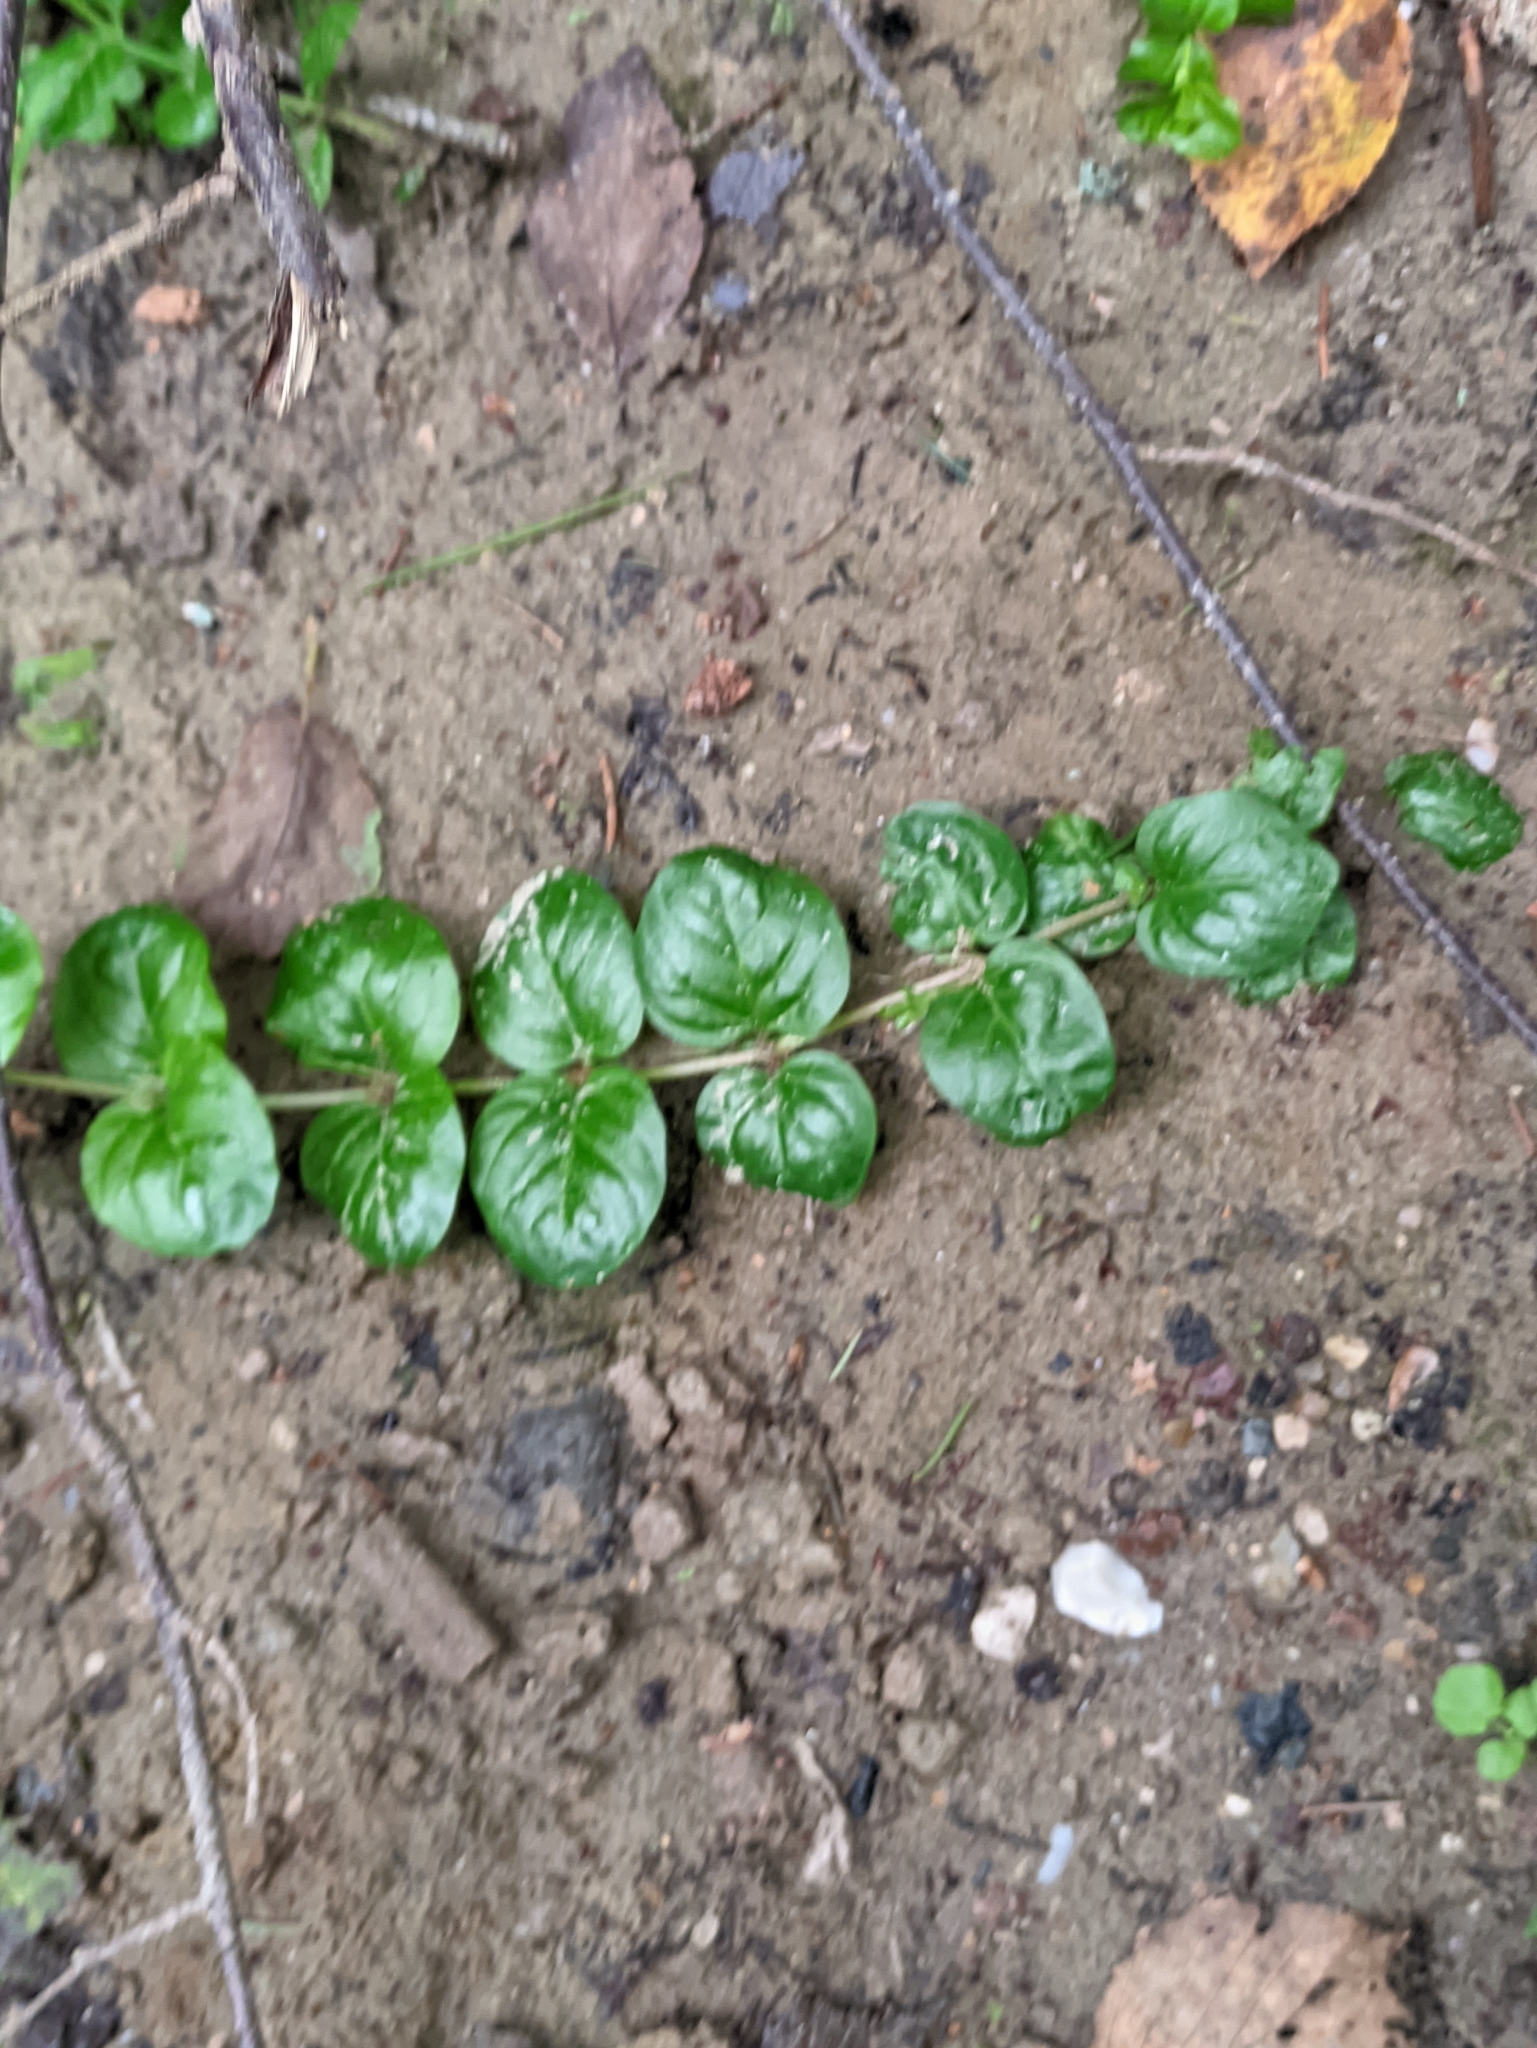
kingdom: Plantae
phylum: Tracheophyta
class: Magnoliopsida
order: Ericales
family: Primulaceae
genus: Lysimachia
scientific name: Lysimachia nummularia
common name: Moneywort
